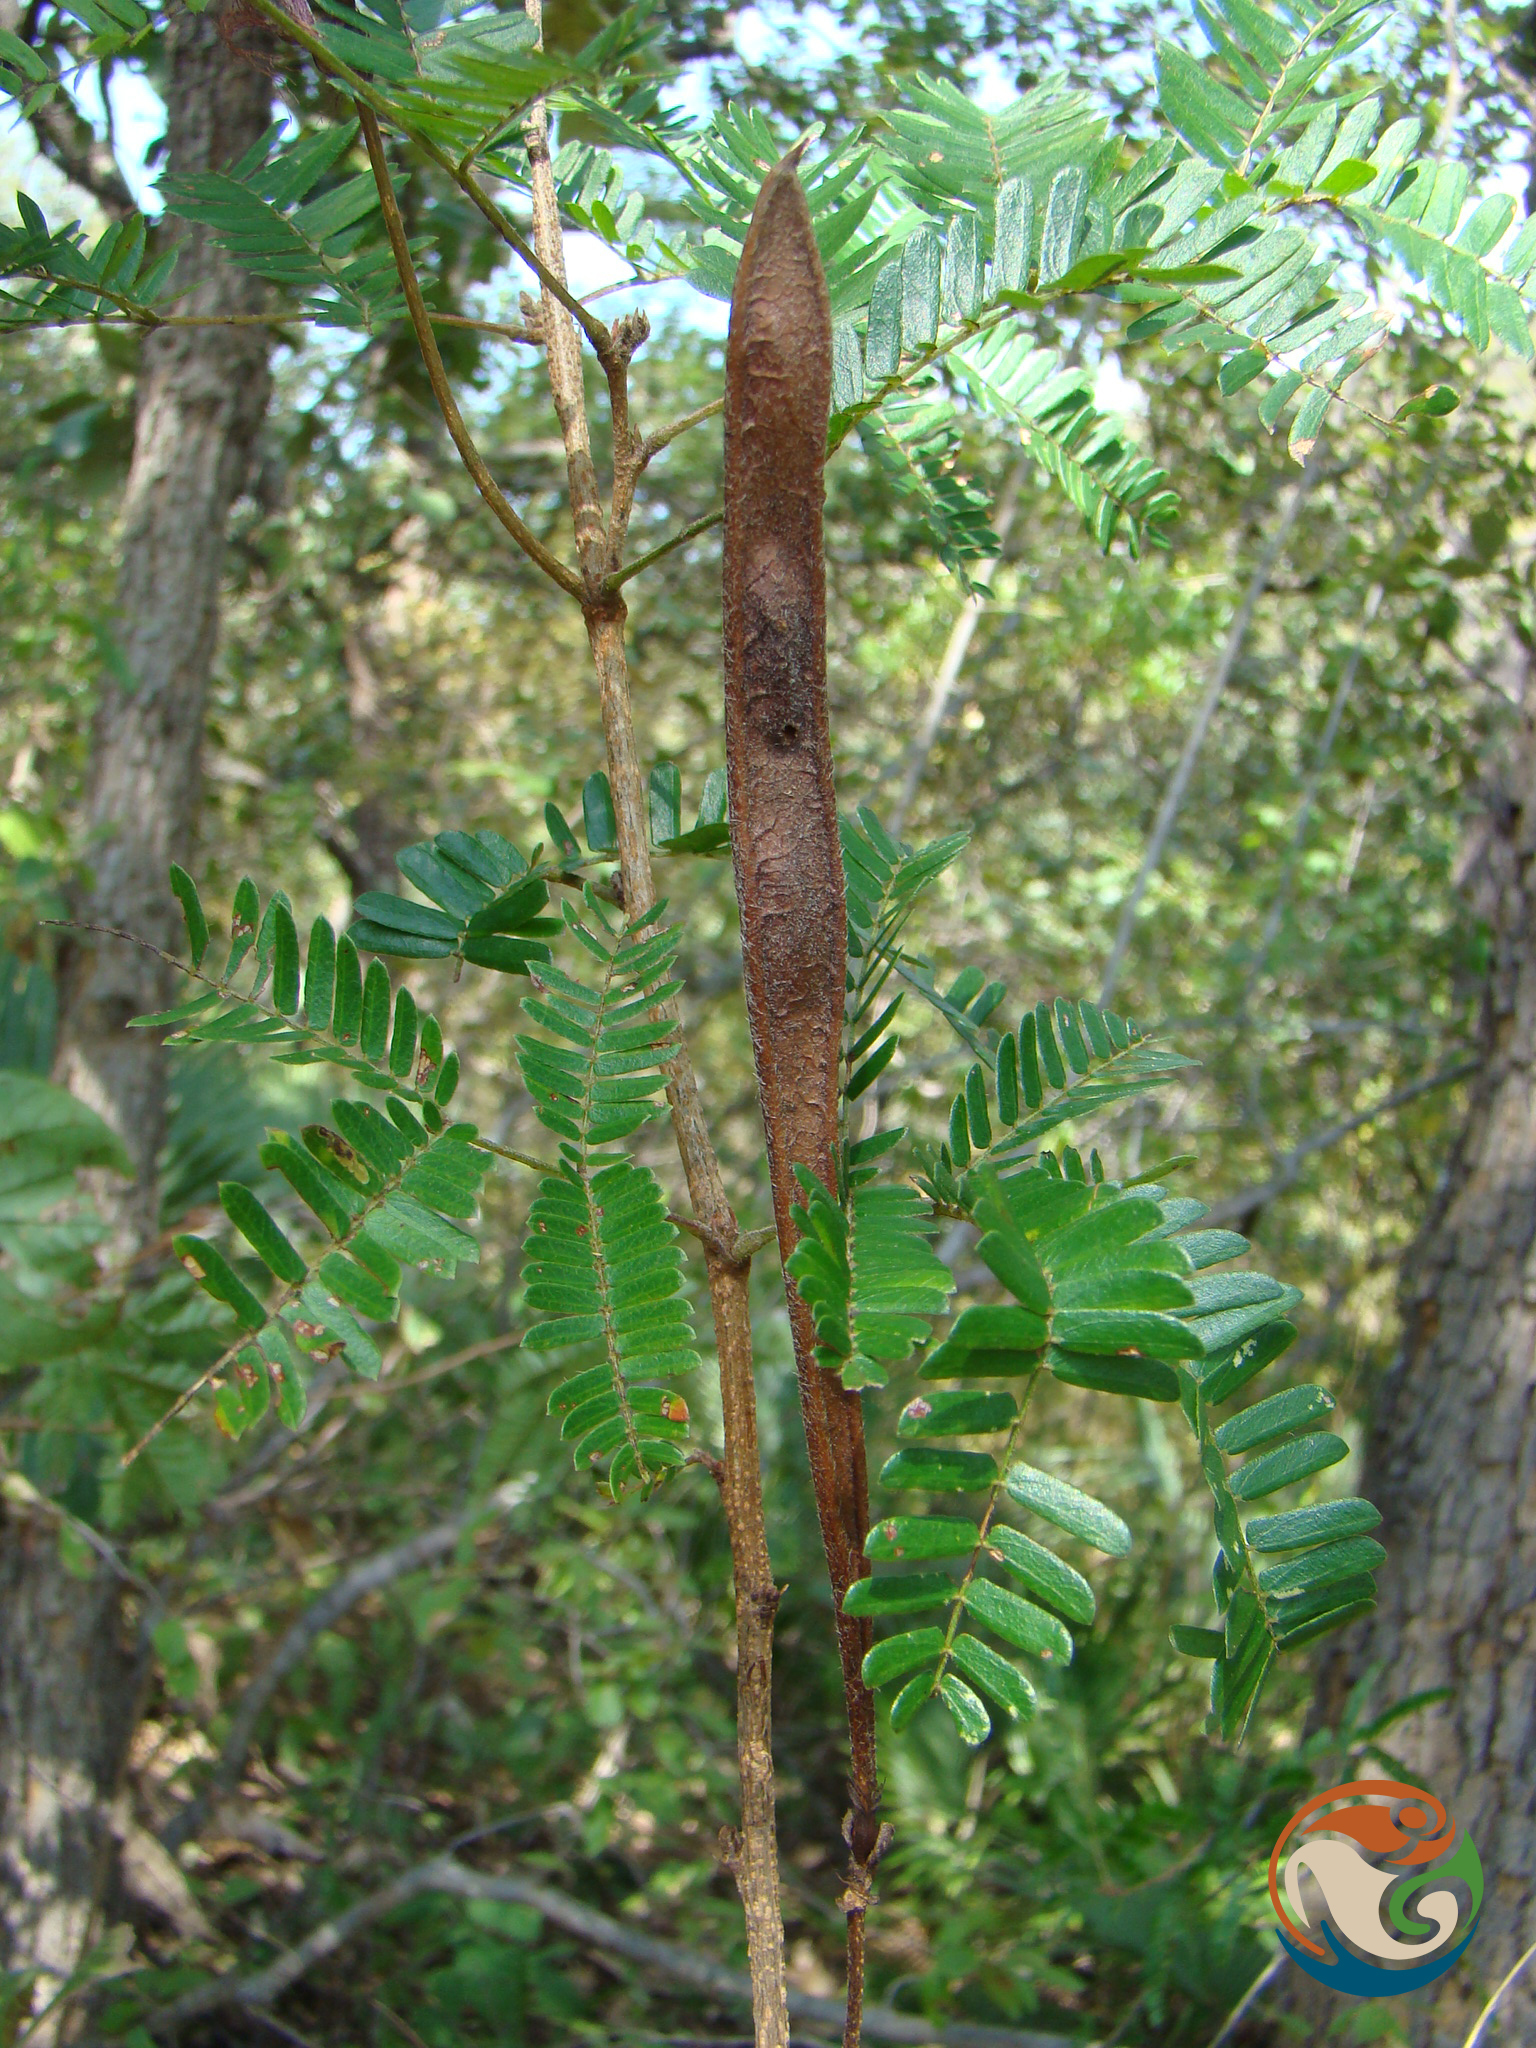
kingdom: Plantae
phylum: Tracheophyta
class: Magnoliopsida
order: Fabales
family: Fabaceae
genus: Calliandra
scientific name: Calliandra hirsuta
